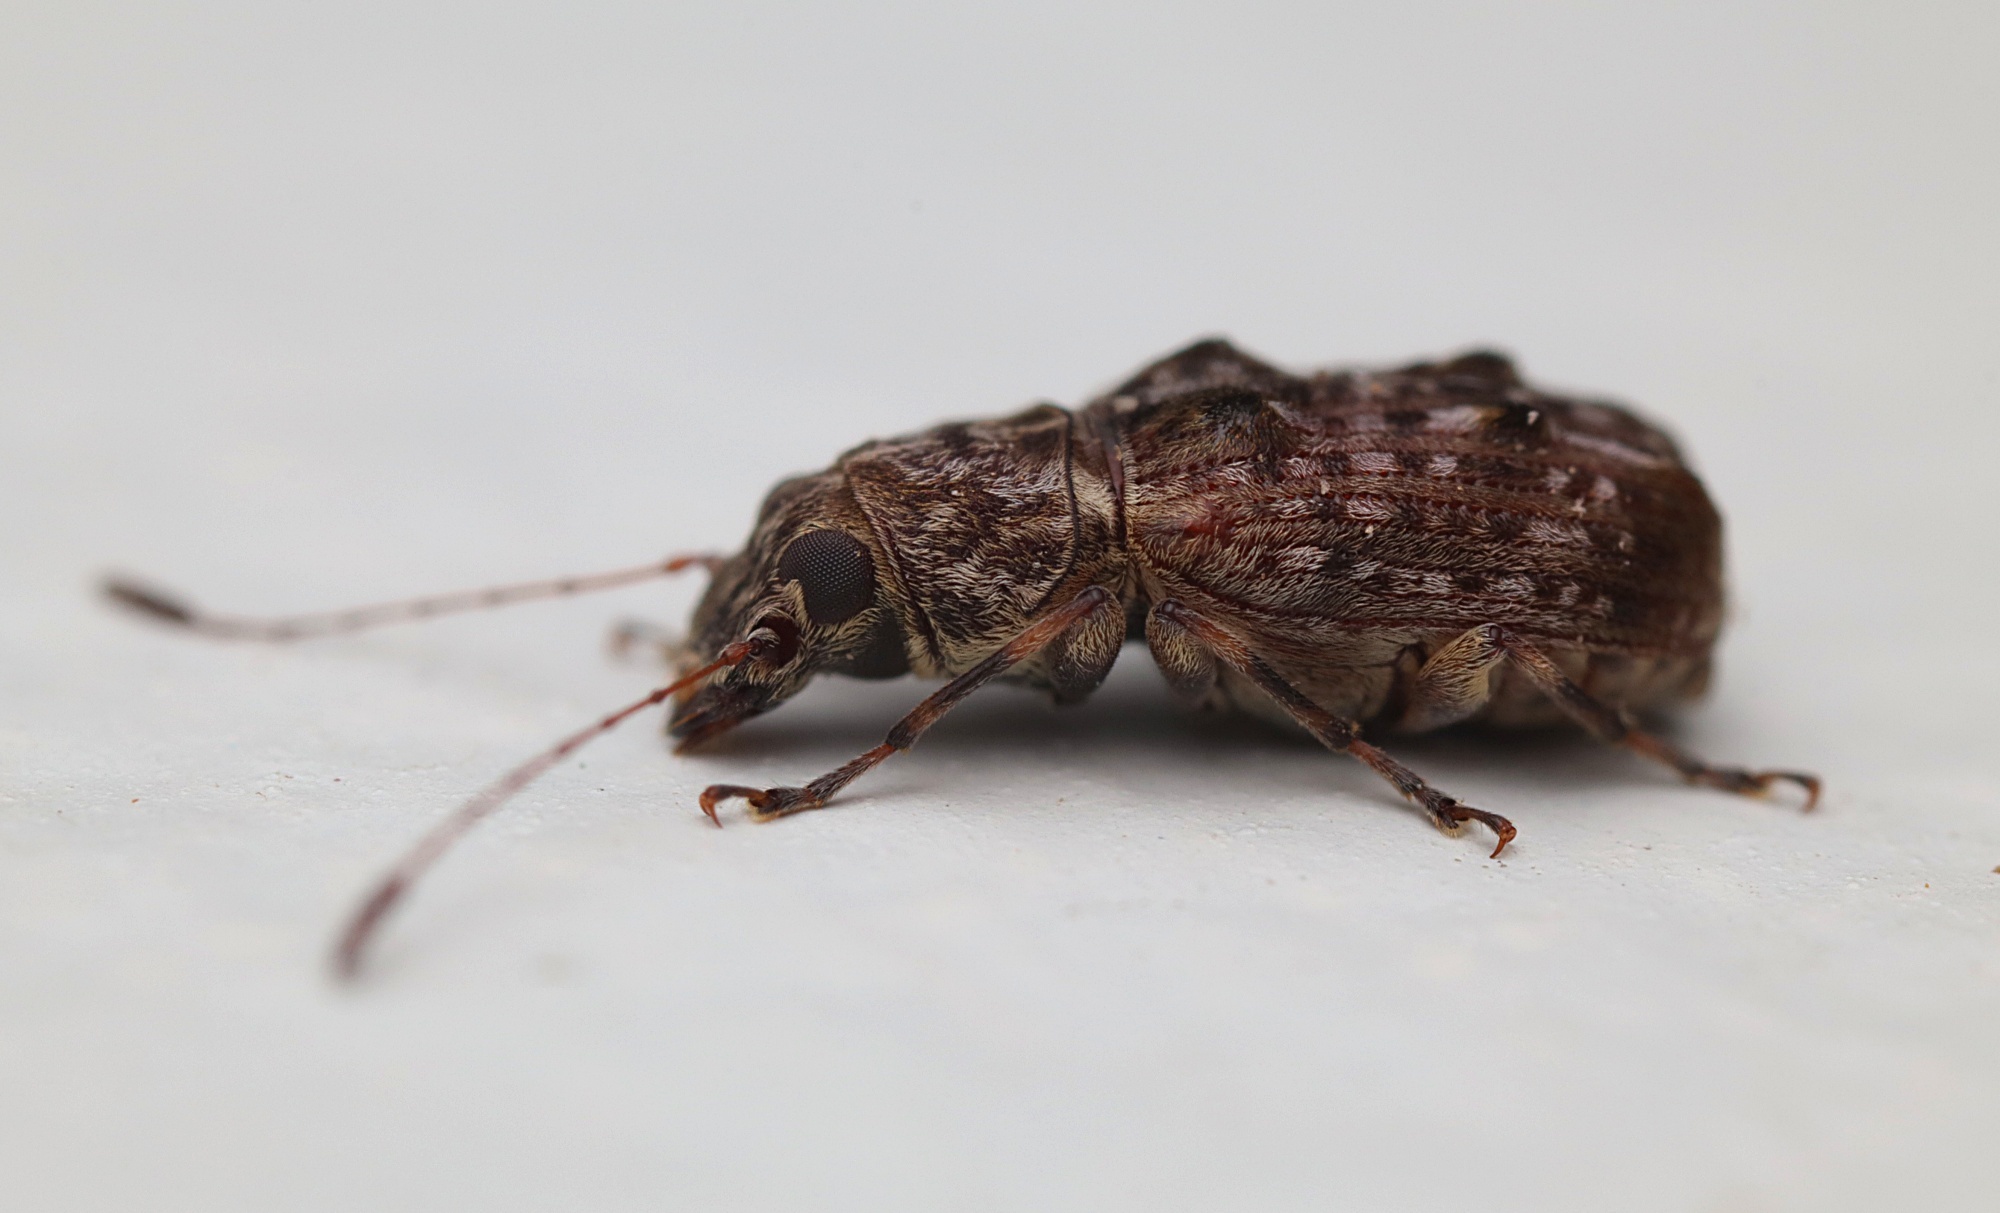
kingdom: Animalia
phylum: Arthropoda
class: Insecta
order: Coleoptera
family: Anthribidae
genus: Phymatus
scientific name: Phymatus
